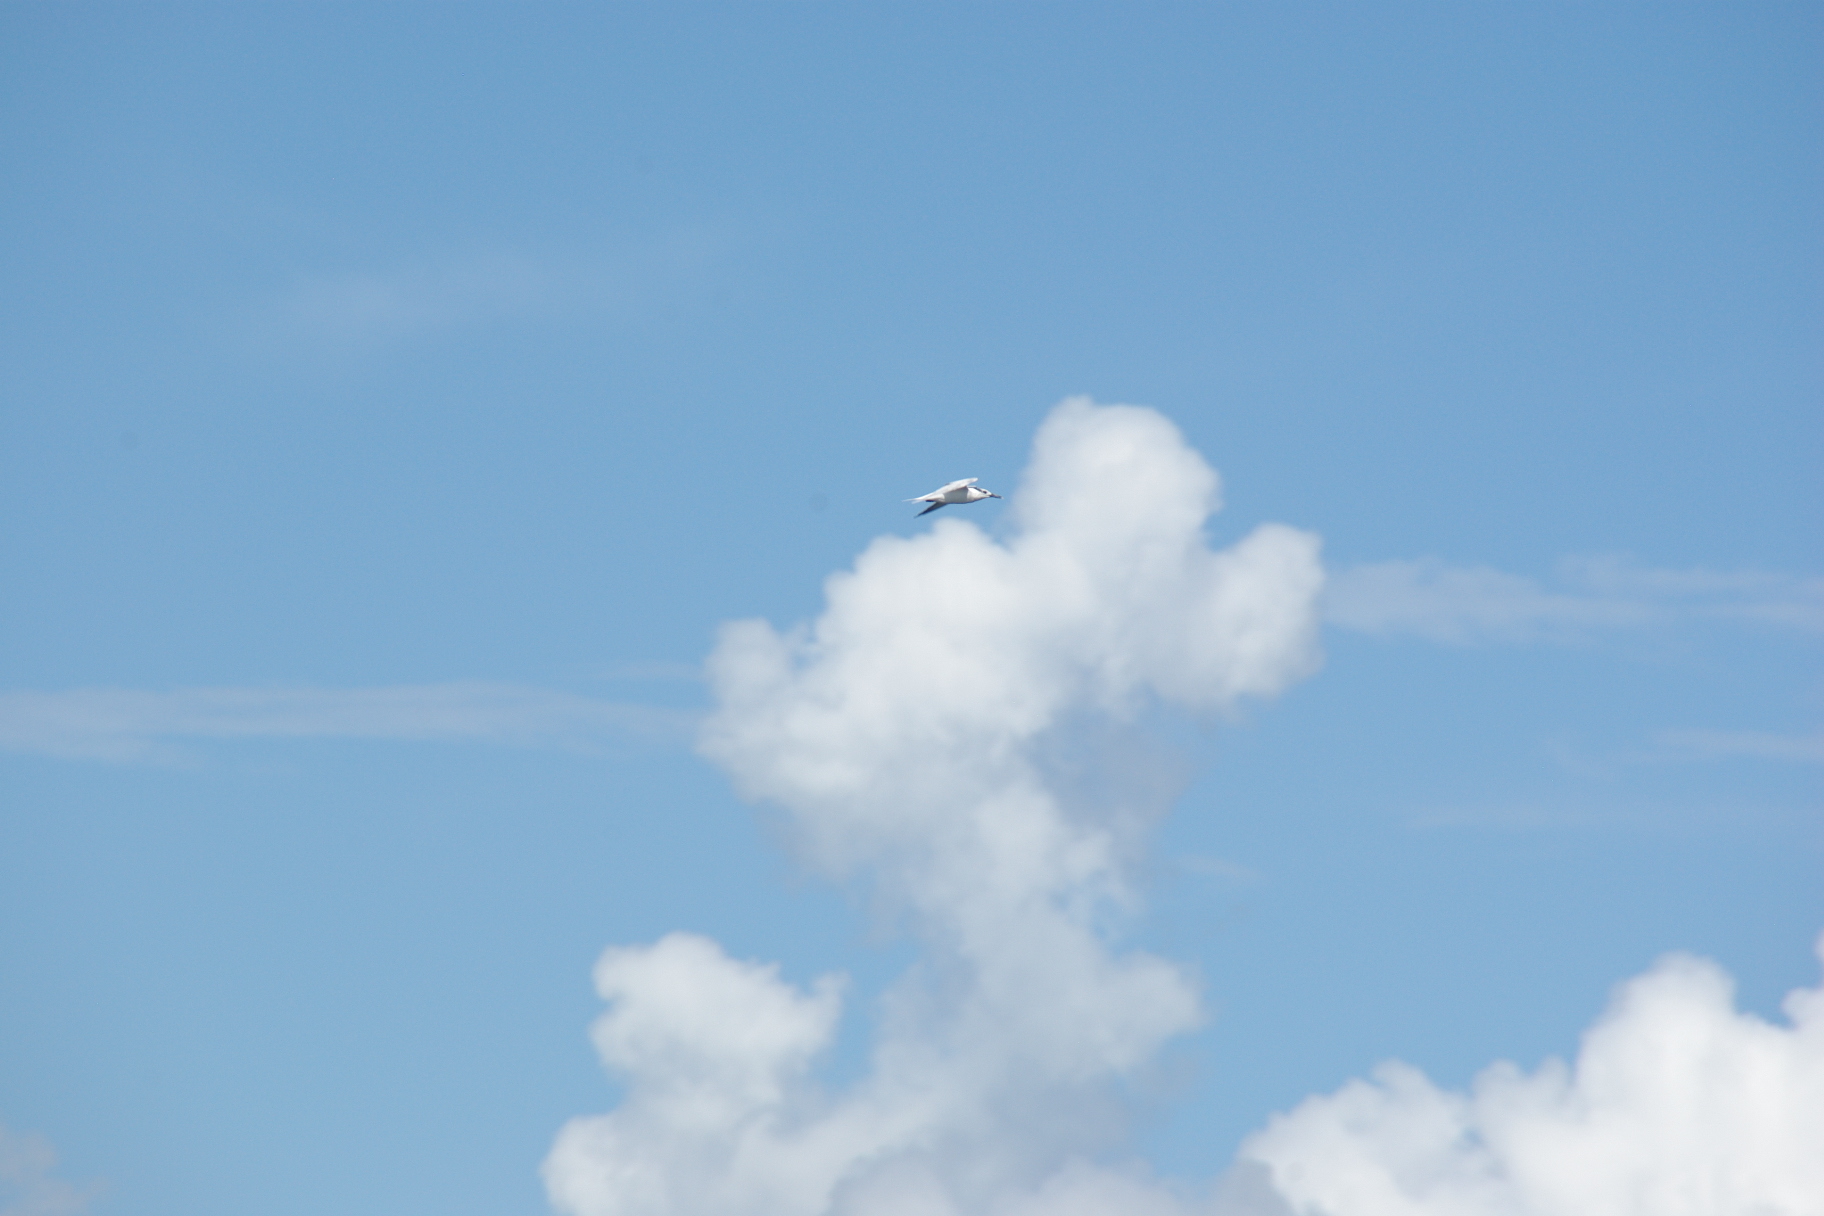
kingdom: Animalia
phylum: Chordata
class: Aves
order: Charadriiformes
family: Laridae
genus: Thalasseus
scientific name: Thalasseus sandvicensis
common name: Sandwich tern
